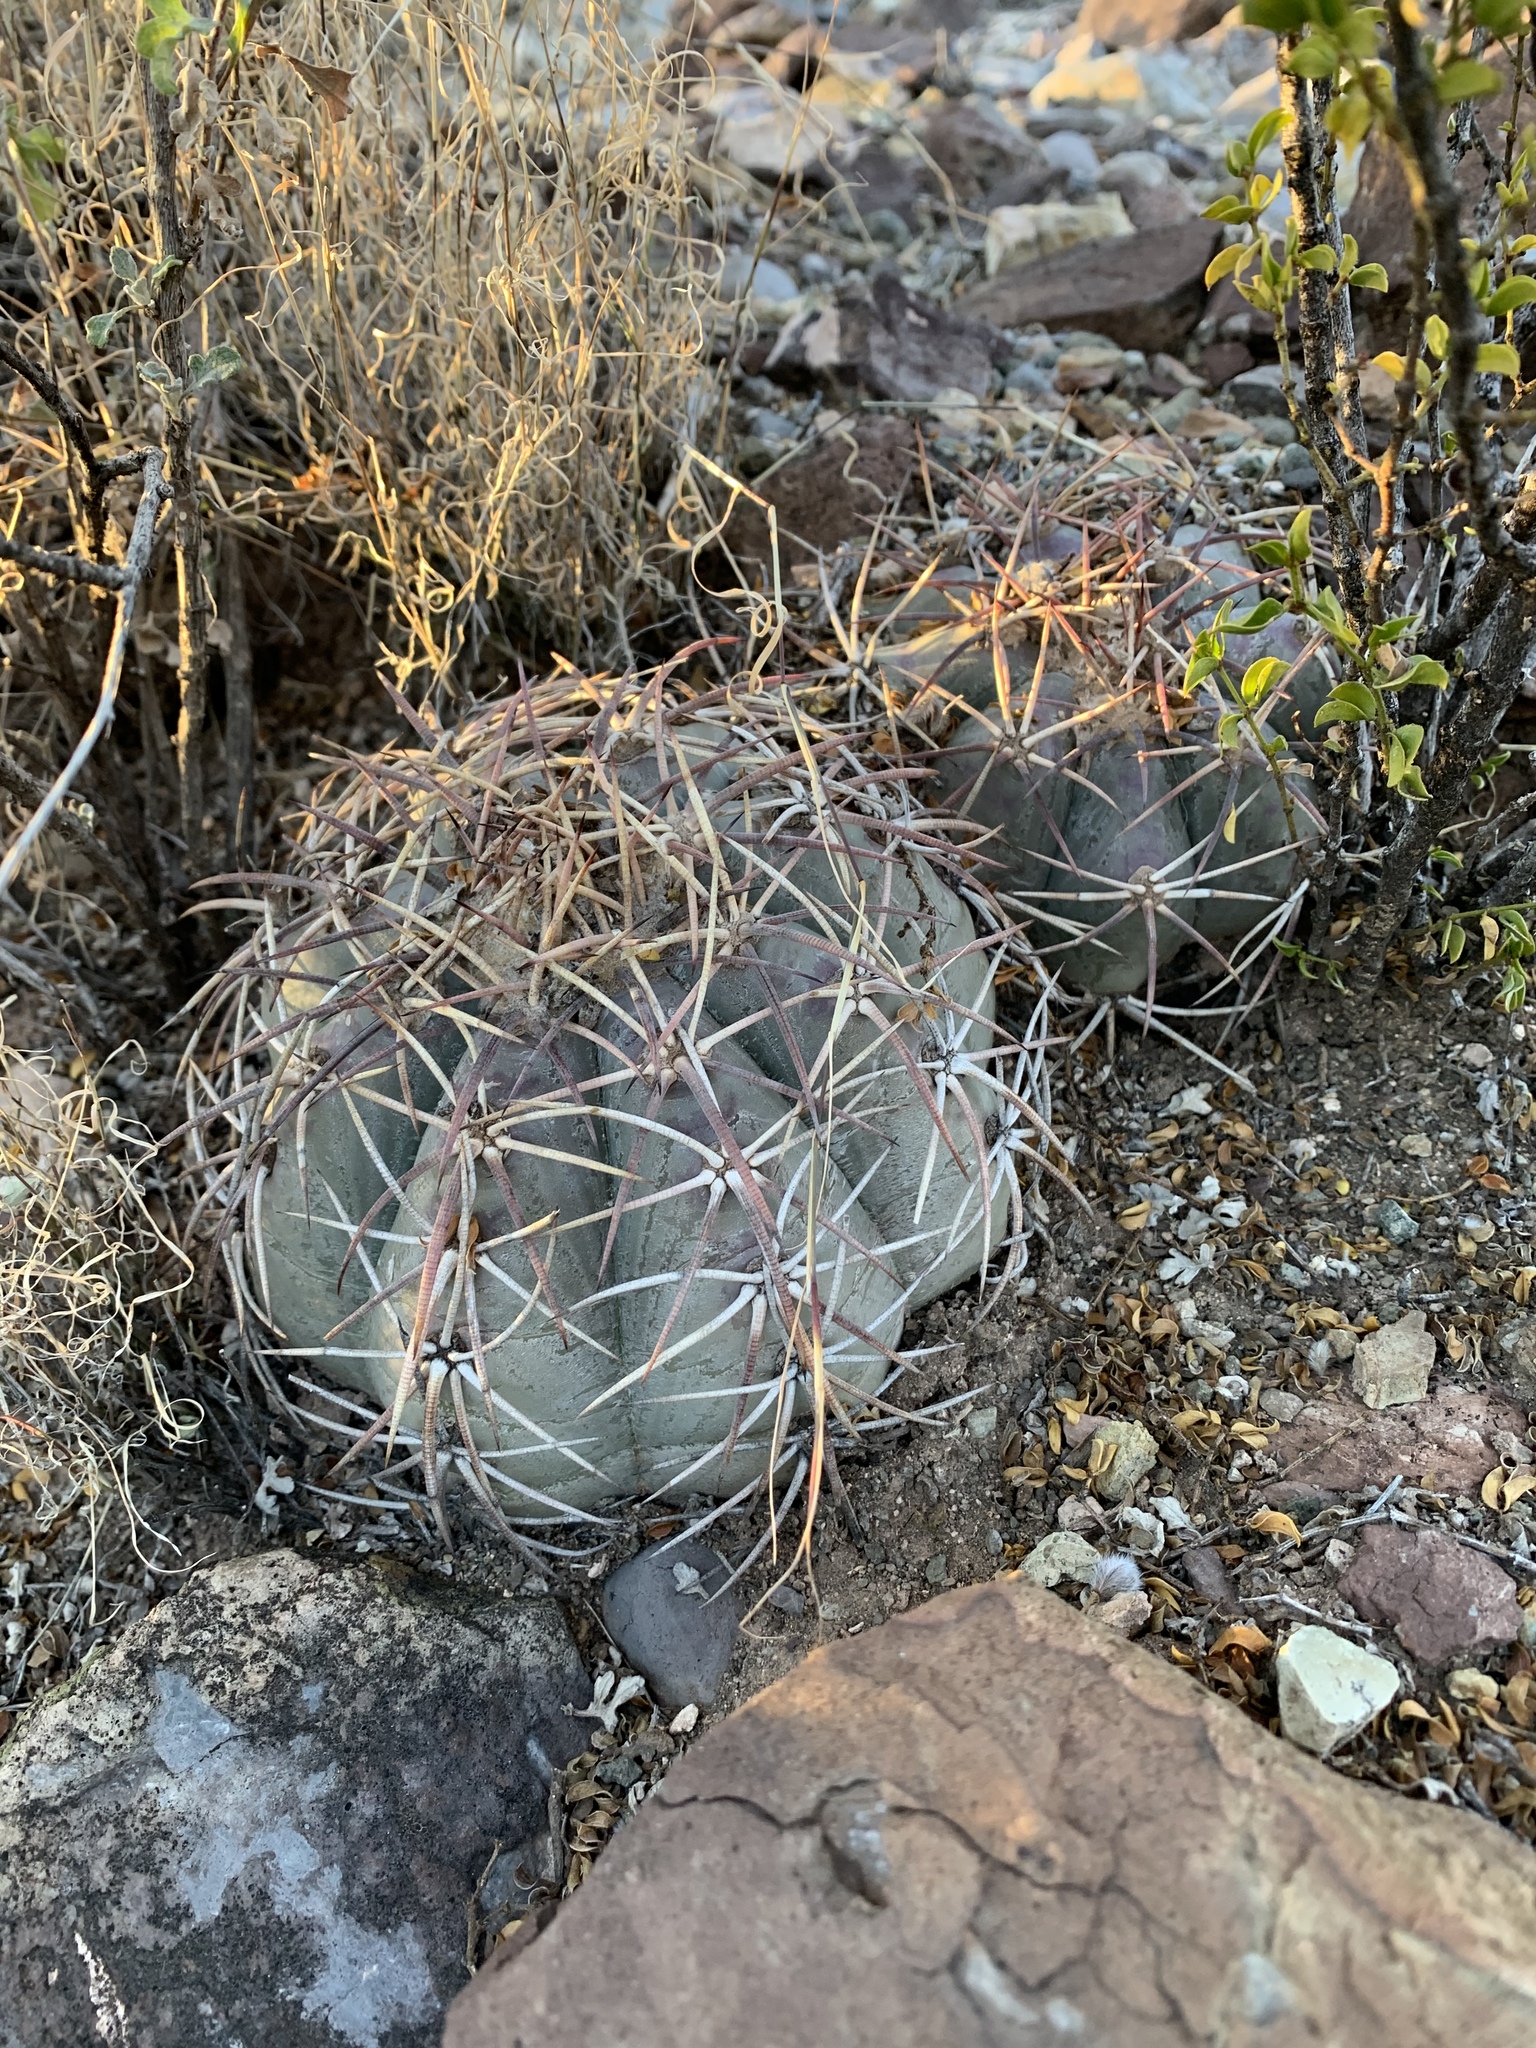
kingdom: Plantae
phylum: Tracheophyta
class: Magnoliopsida
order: Caryophyllales
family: Cactaceae
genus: Echinocactus
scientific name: Echinocactus horizonthalonius
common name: Devilshead
